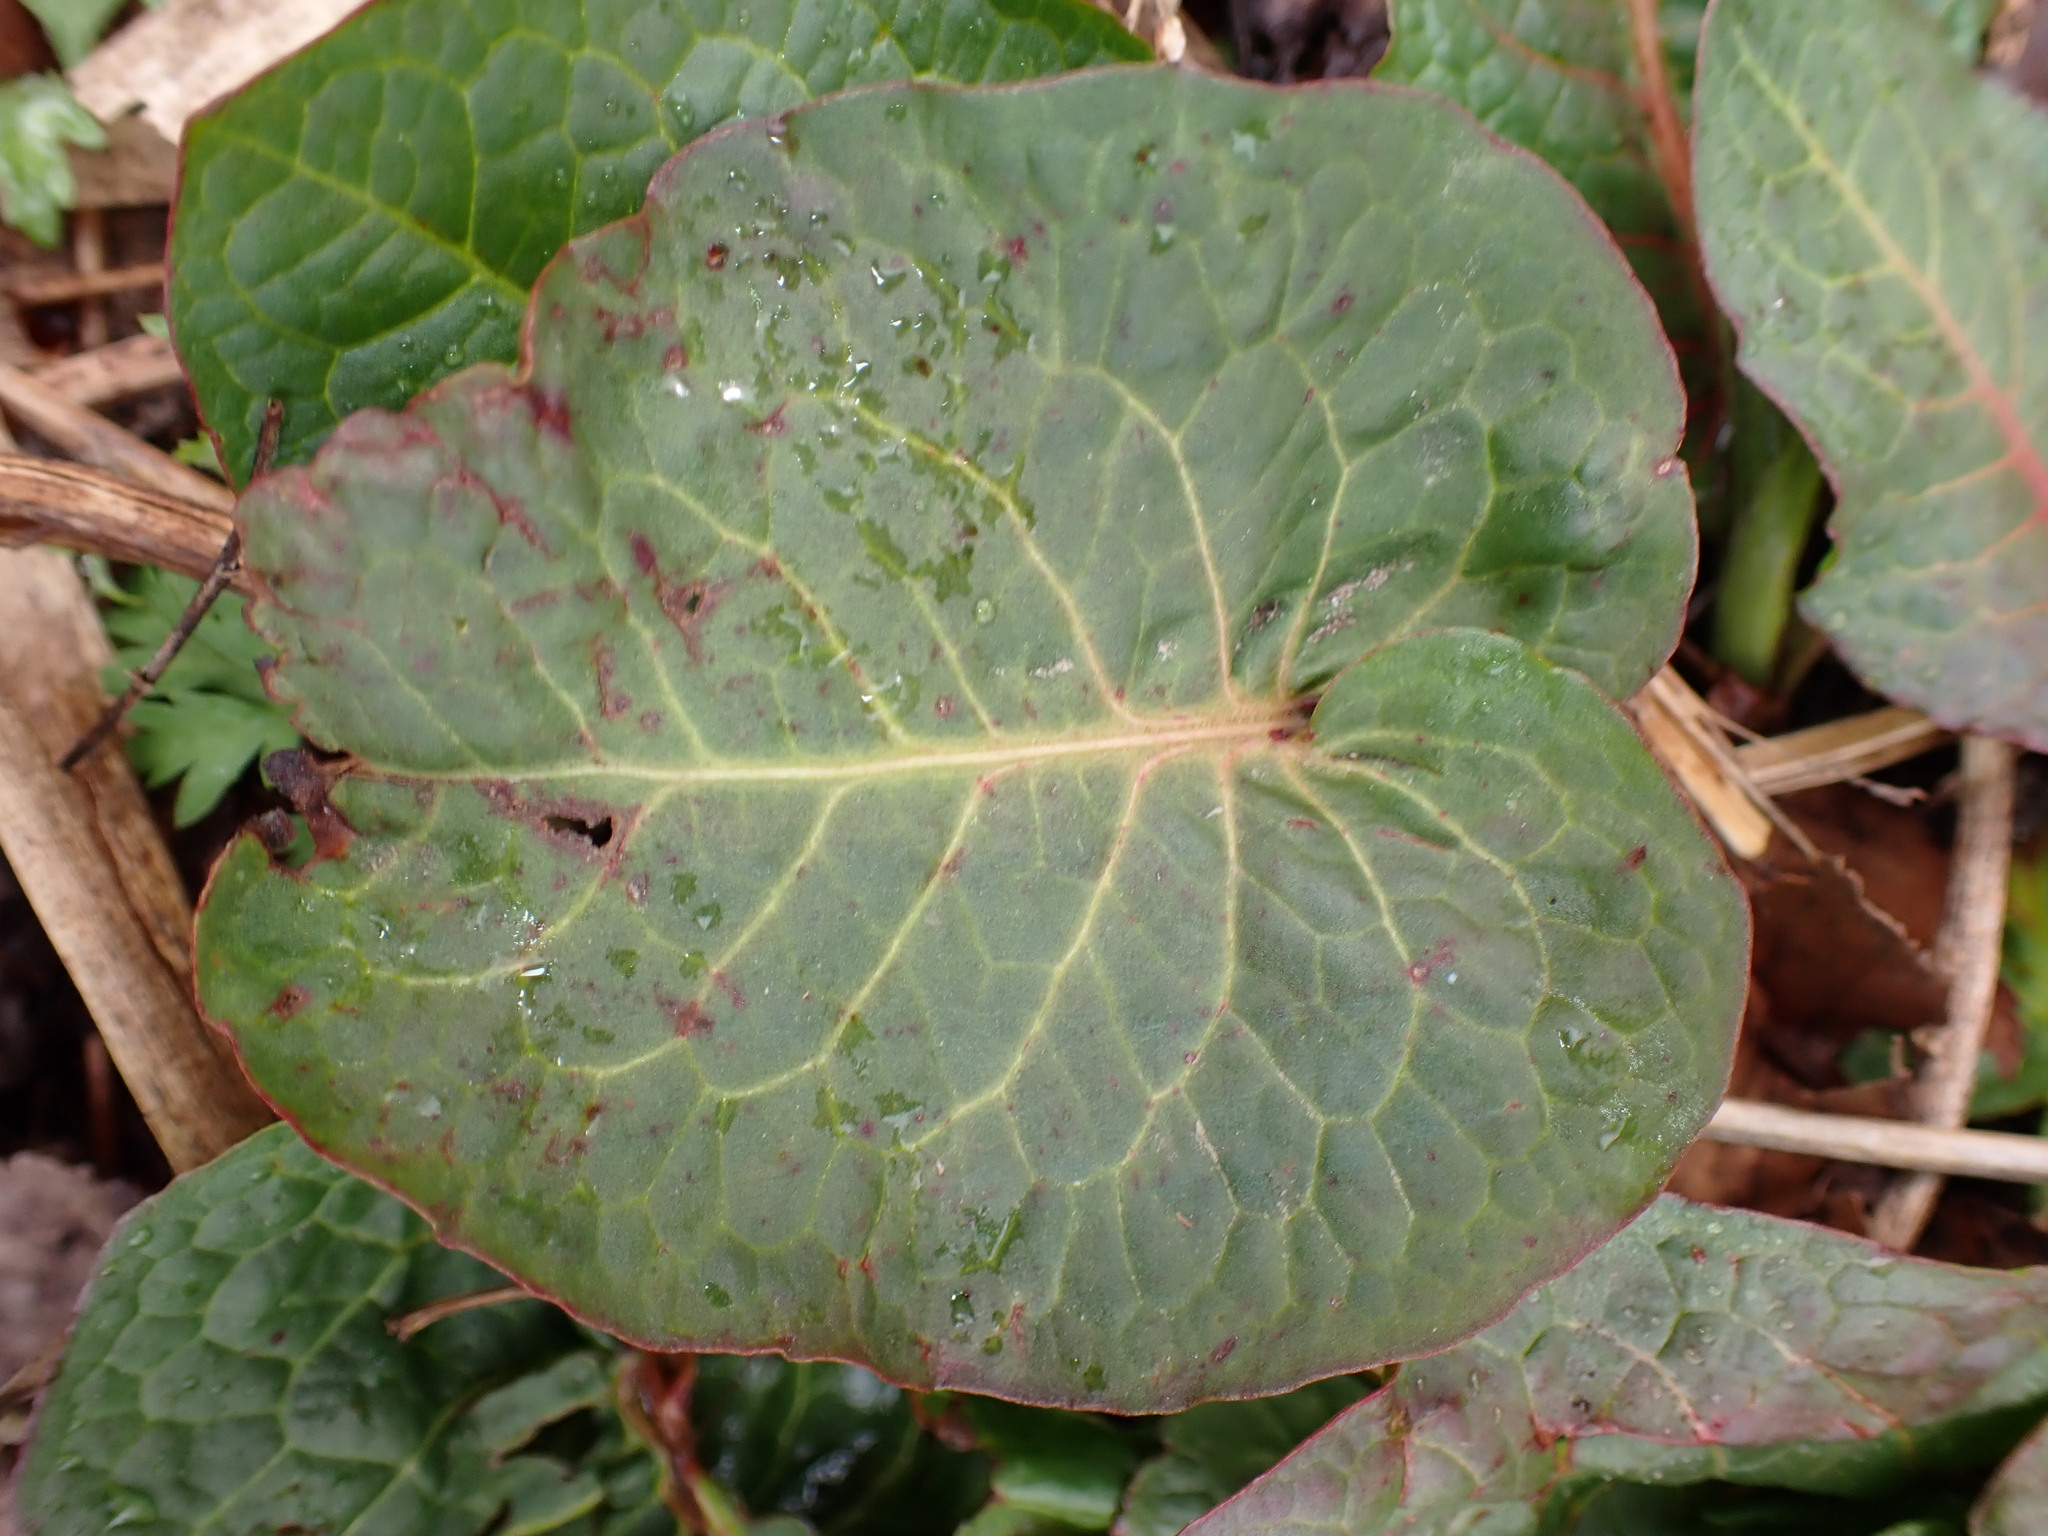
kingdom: Plantae
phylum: Tracheophyta
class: Magnoliopsida
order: Caryophyllales
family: Polygonaceae
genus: Rumex
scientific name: Rumex obtusifolius
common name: Bitter dock
